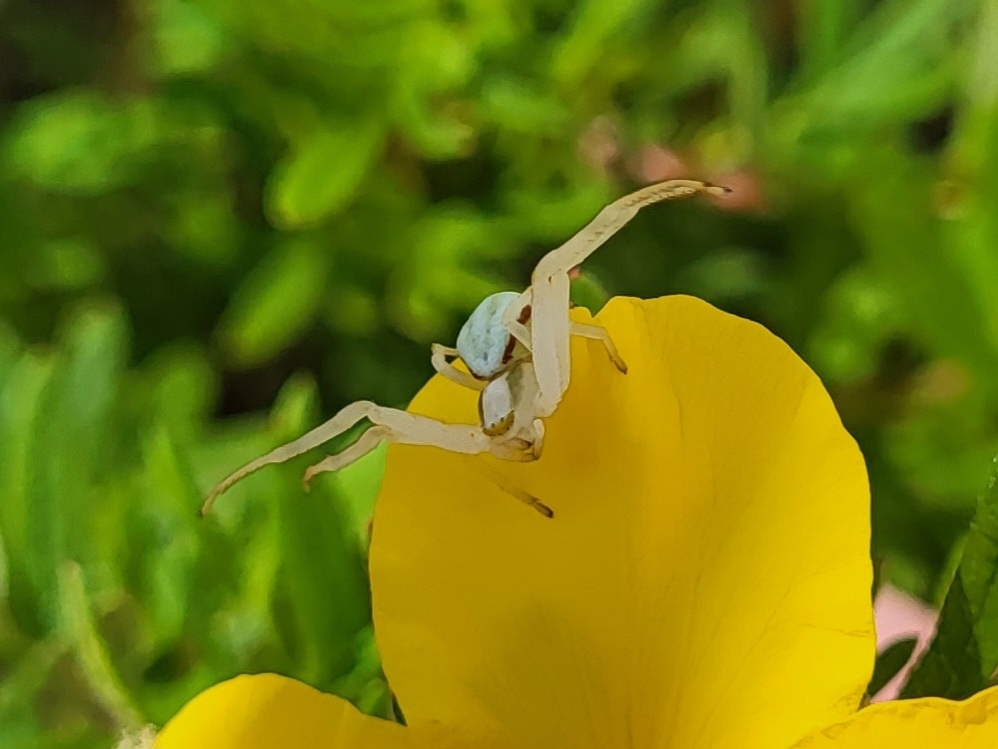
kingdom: Animalia
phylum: Arthropoda
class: Arachnida
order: Araneae
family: Thomisidae
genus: Misumena
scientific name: Misumena vatia
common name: Goldenrod crab spider
